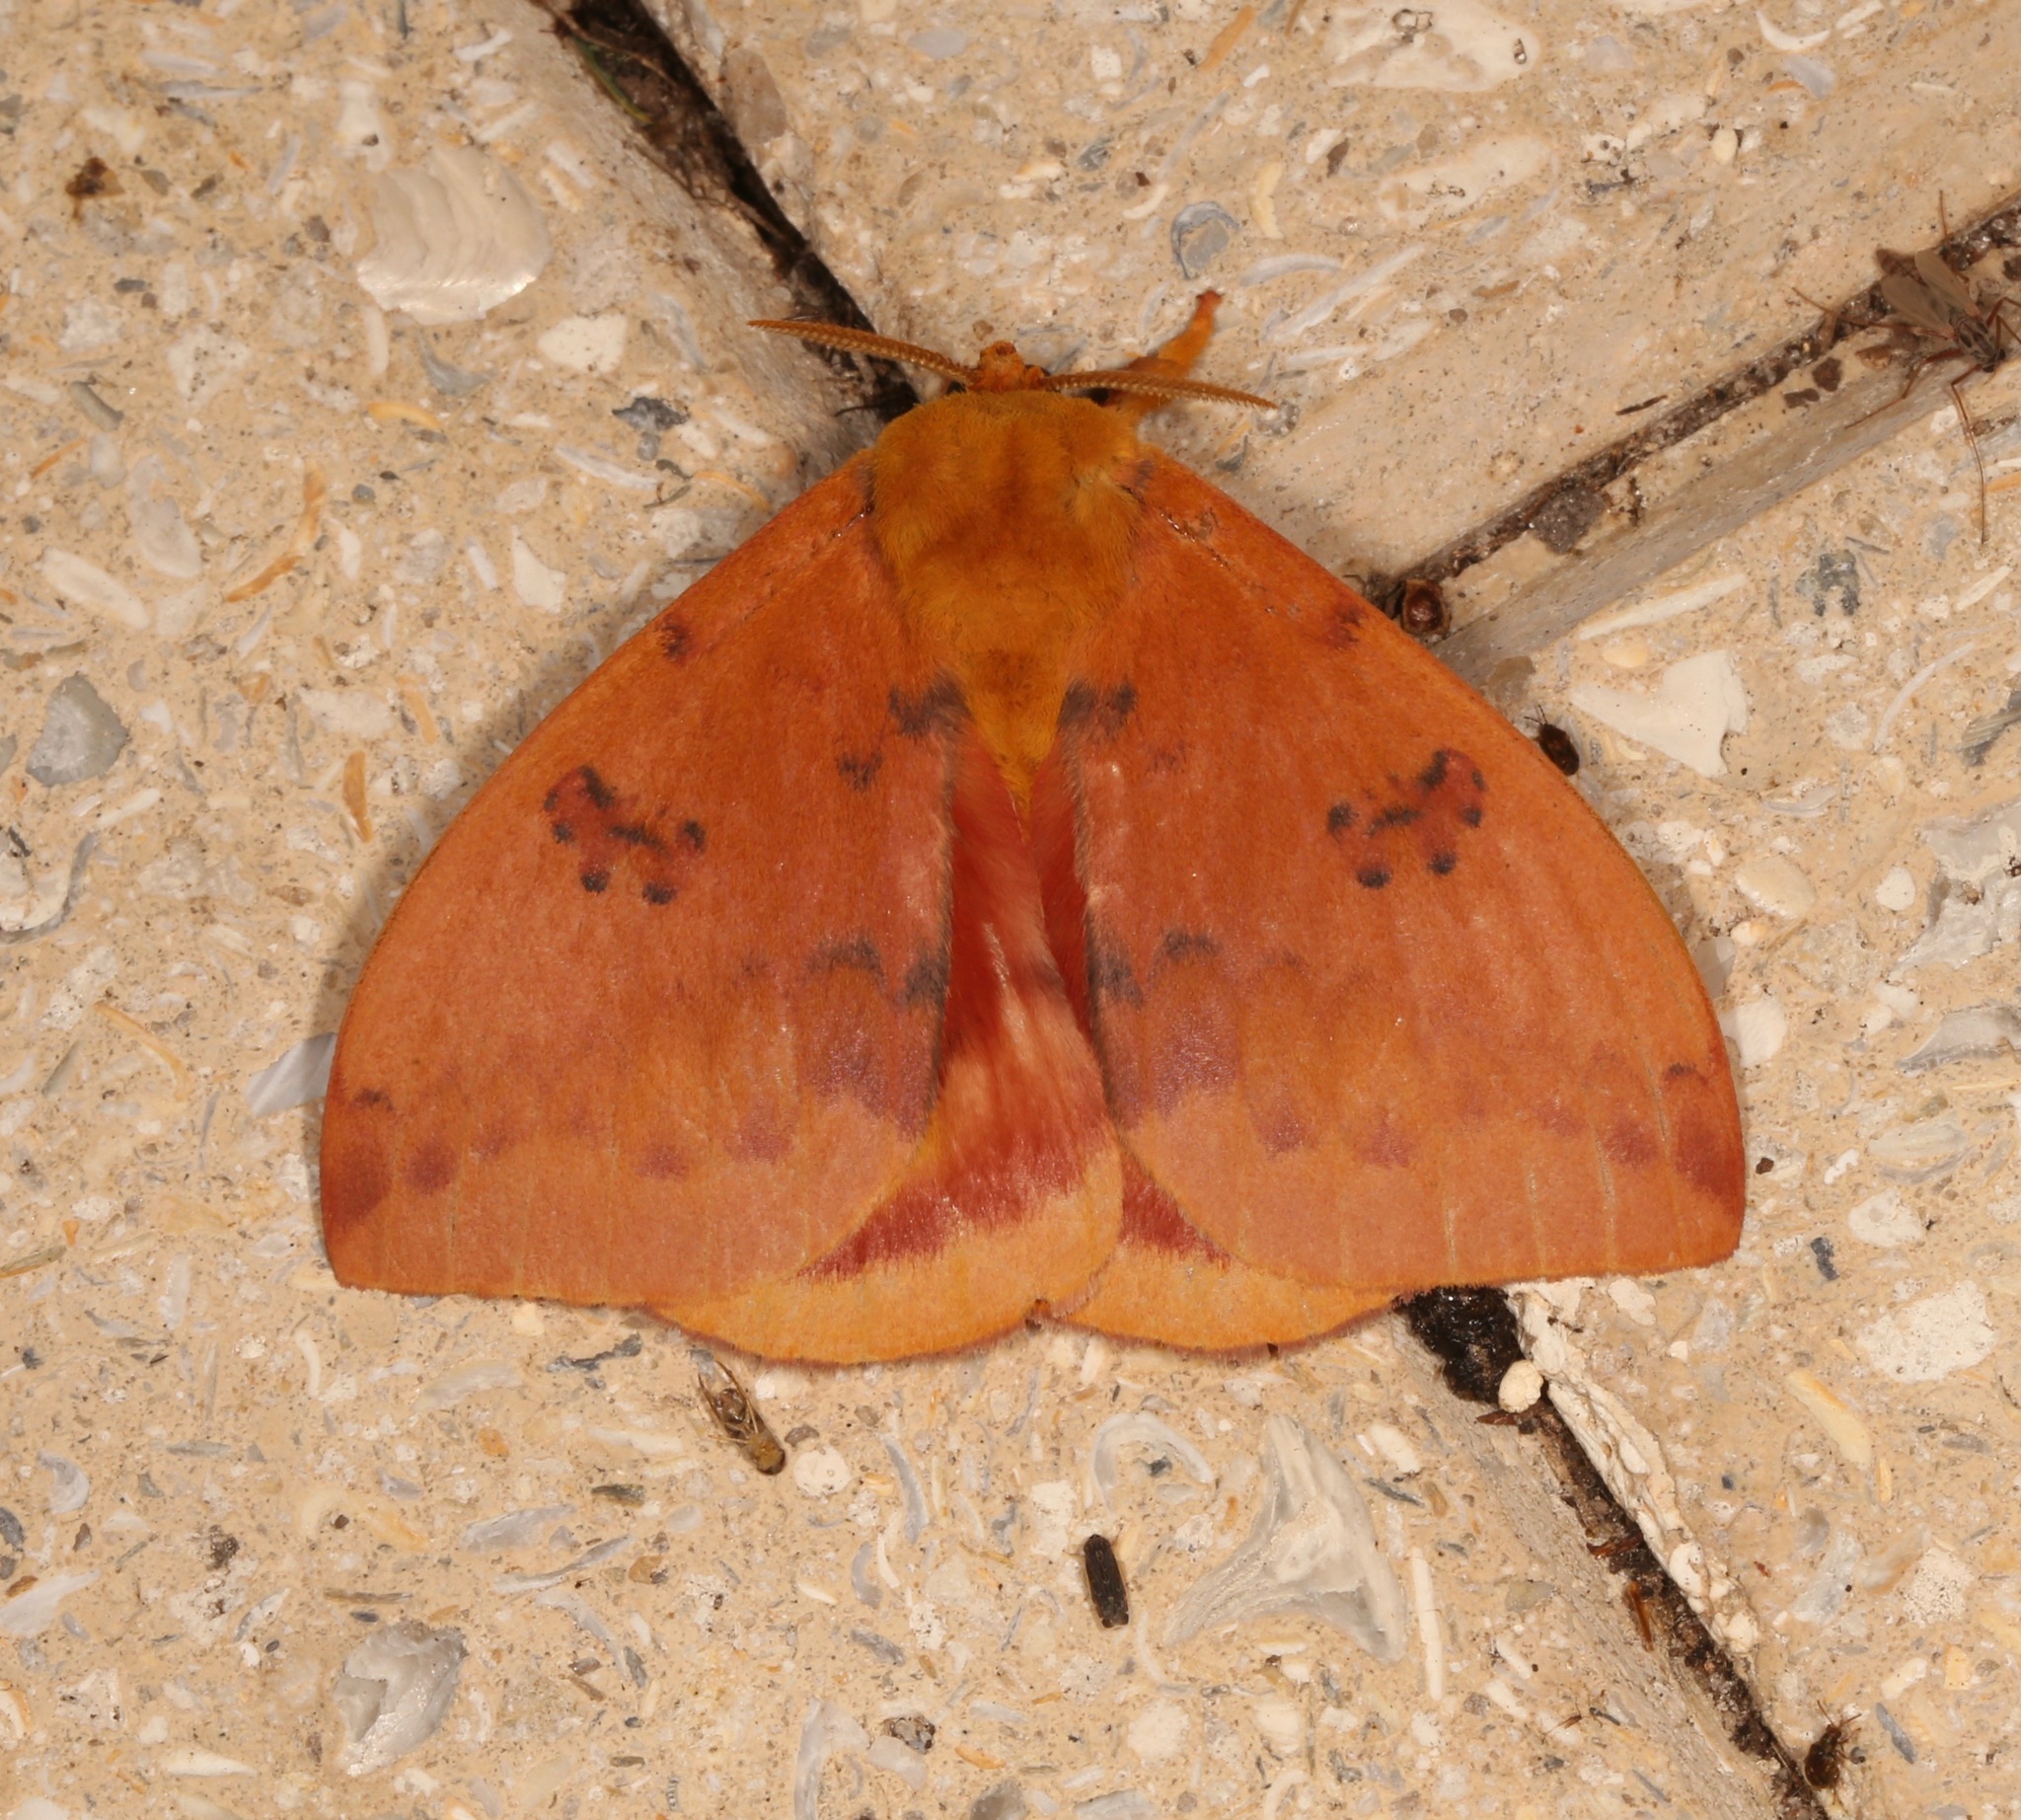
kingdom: Animalia
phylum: Arthropoda
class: Insecta
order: Lepidoptera
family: Saturniidae
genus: Automeris
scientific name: Automeris io
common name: Io moth
